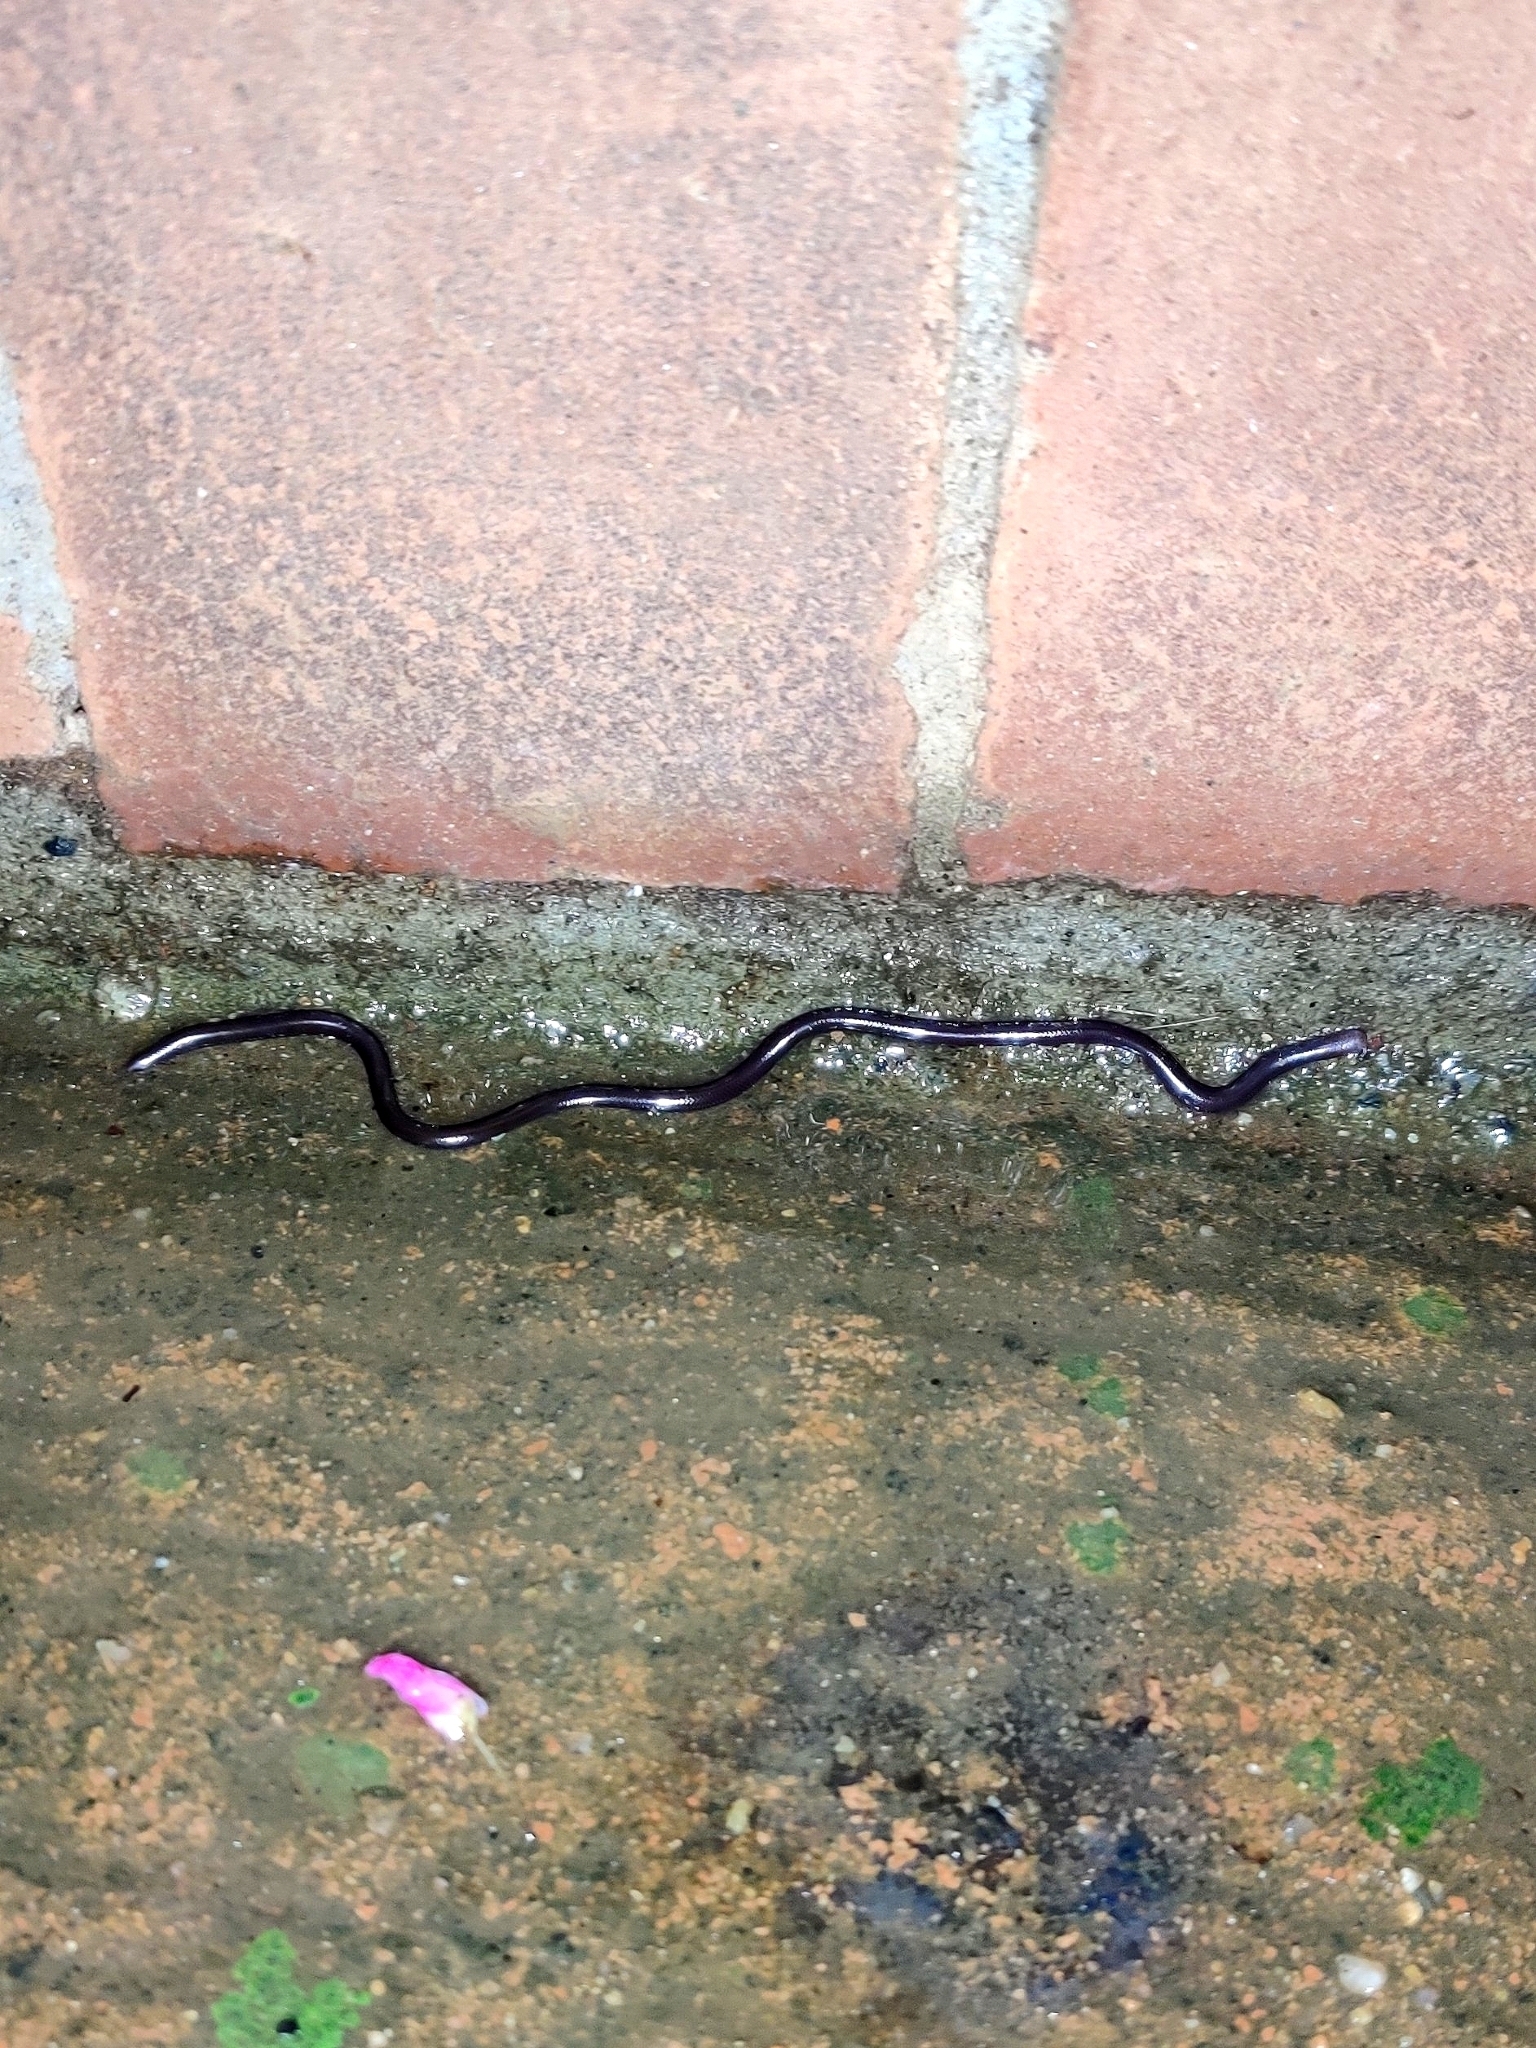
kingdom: Animalia
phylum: Chordata
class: Squamata
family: Typhlopidae
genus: Indotyphlops
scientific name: Indotyphlops braminus
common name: Brahminy blindsnake
